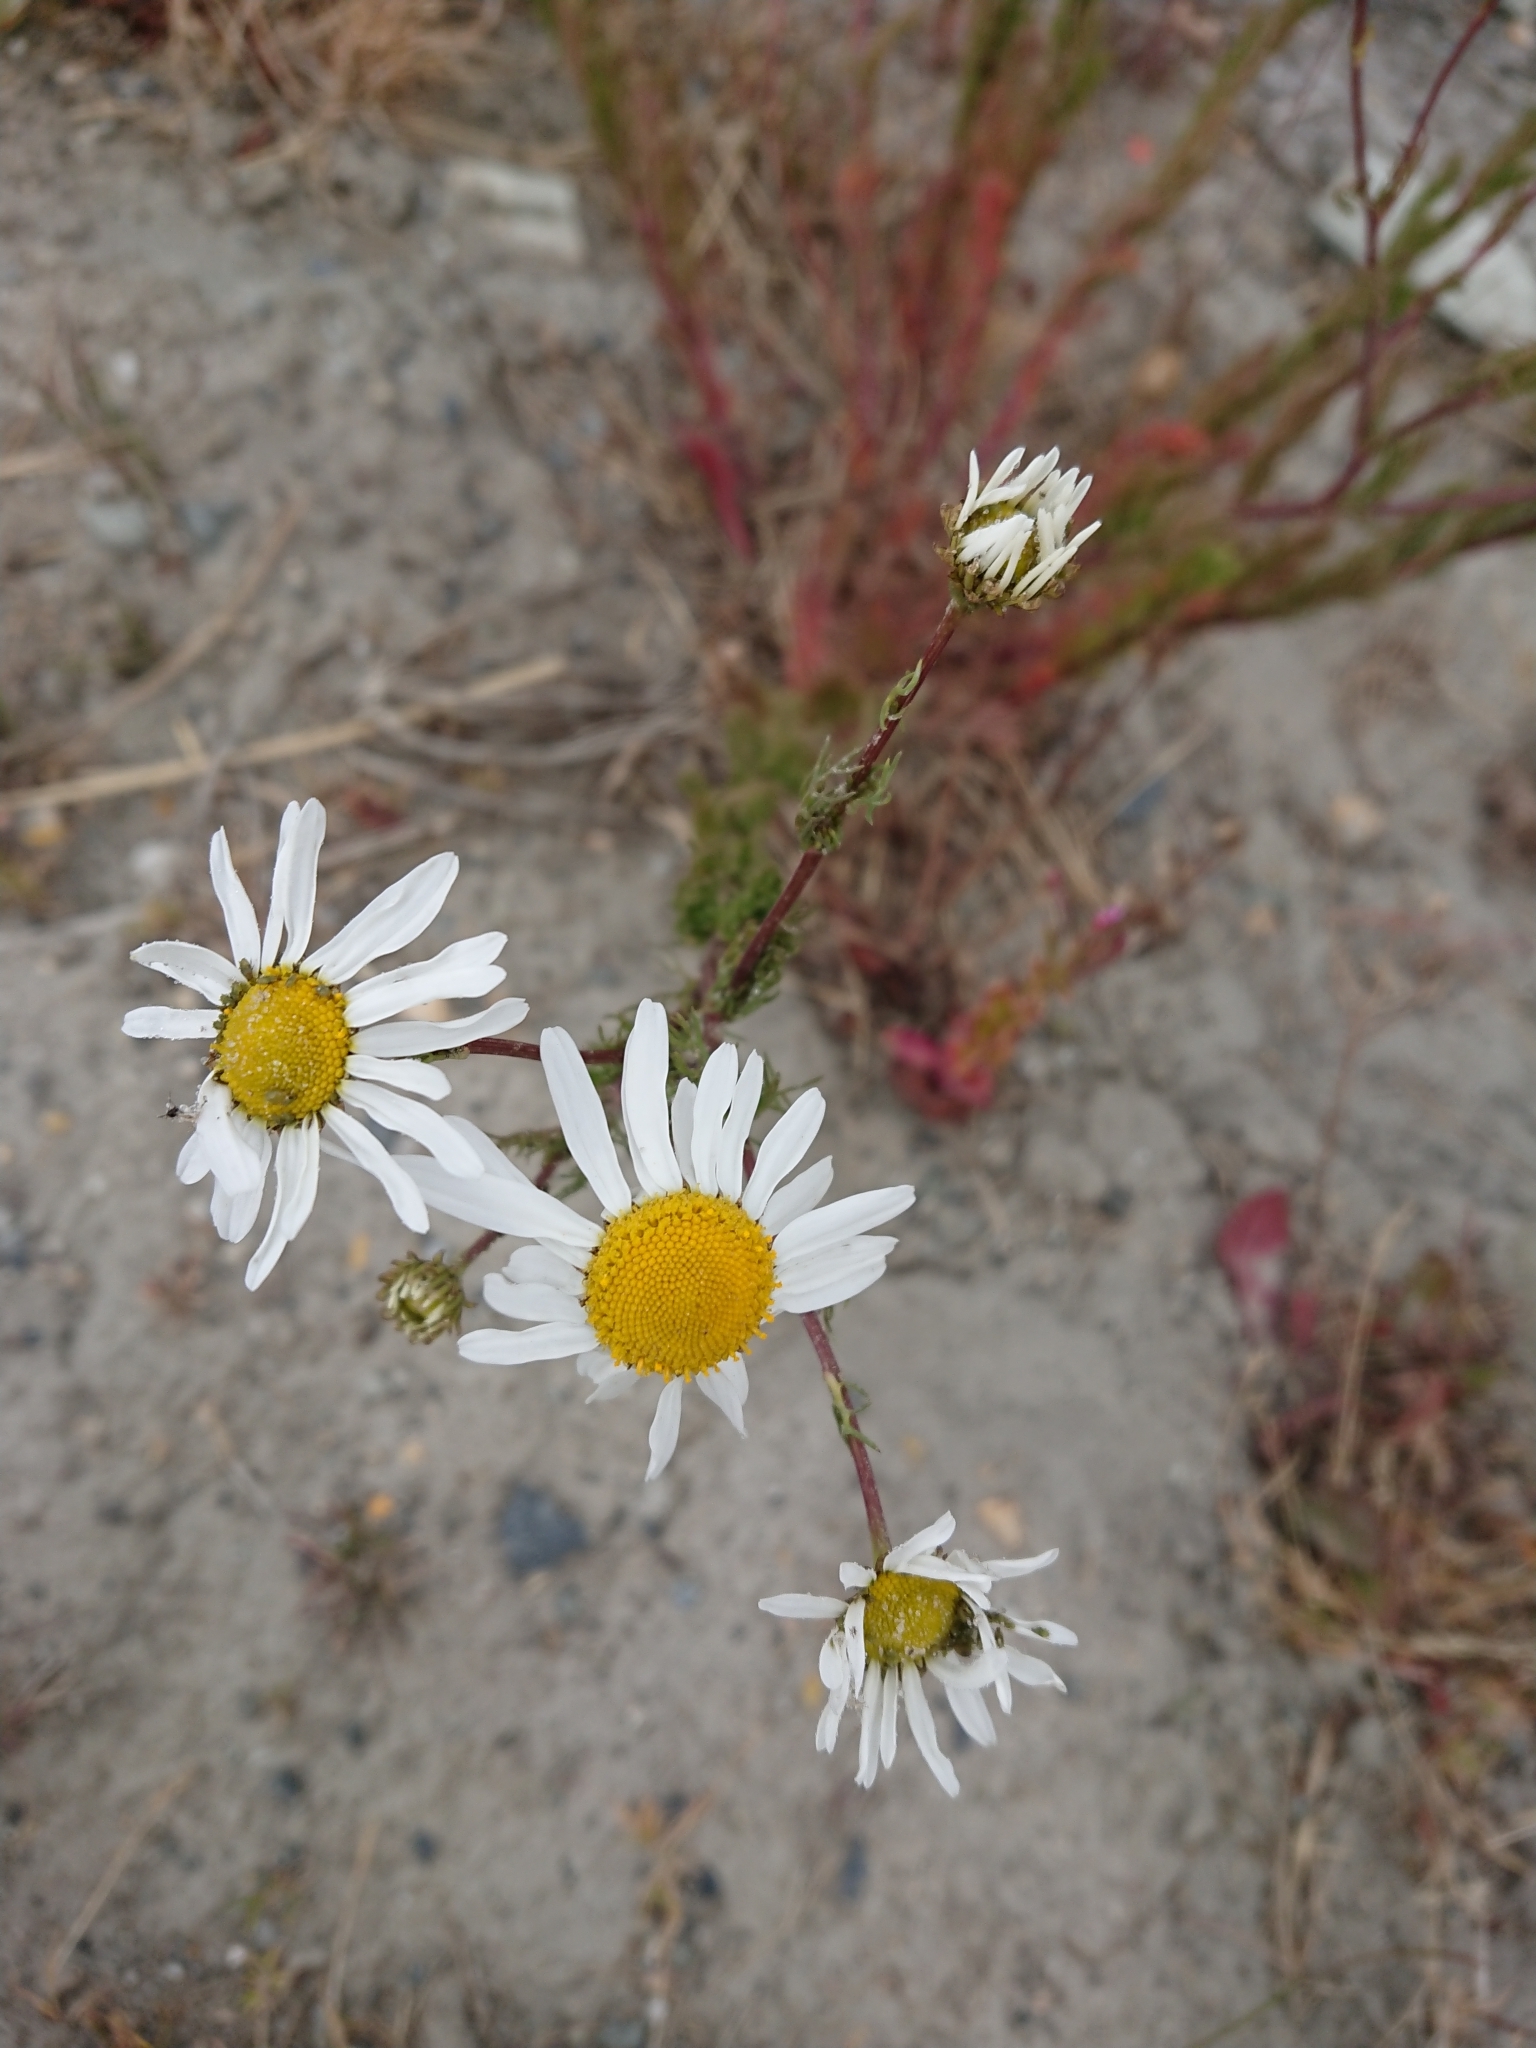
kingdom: Plantae
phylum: Tracheophyta
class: Magnoliopsida
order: Asterales
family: Asteraceae
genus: Tripleurospermum
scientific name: Tripleurospermum inodorum
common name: Scentless mayweed
